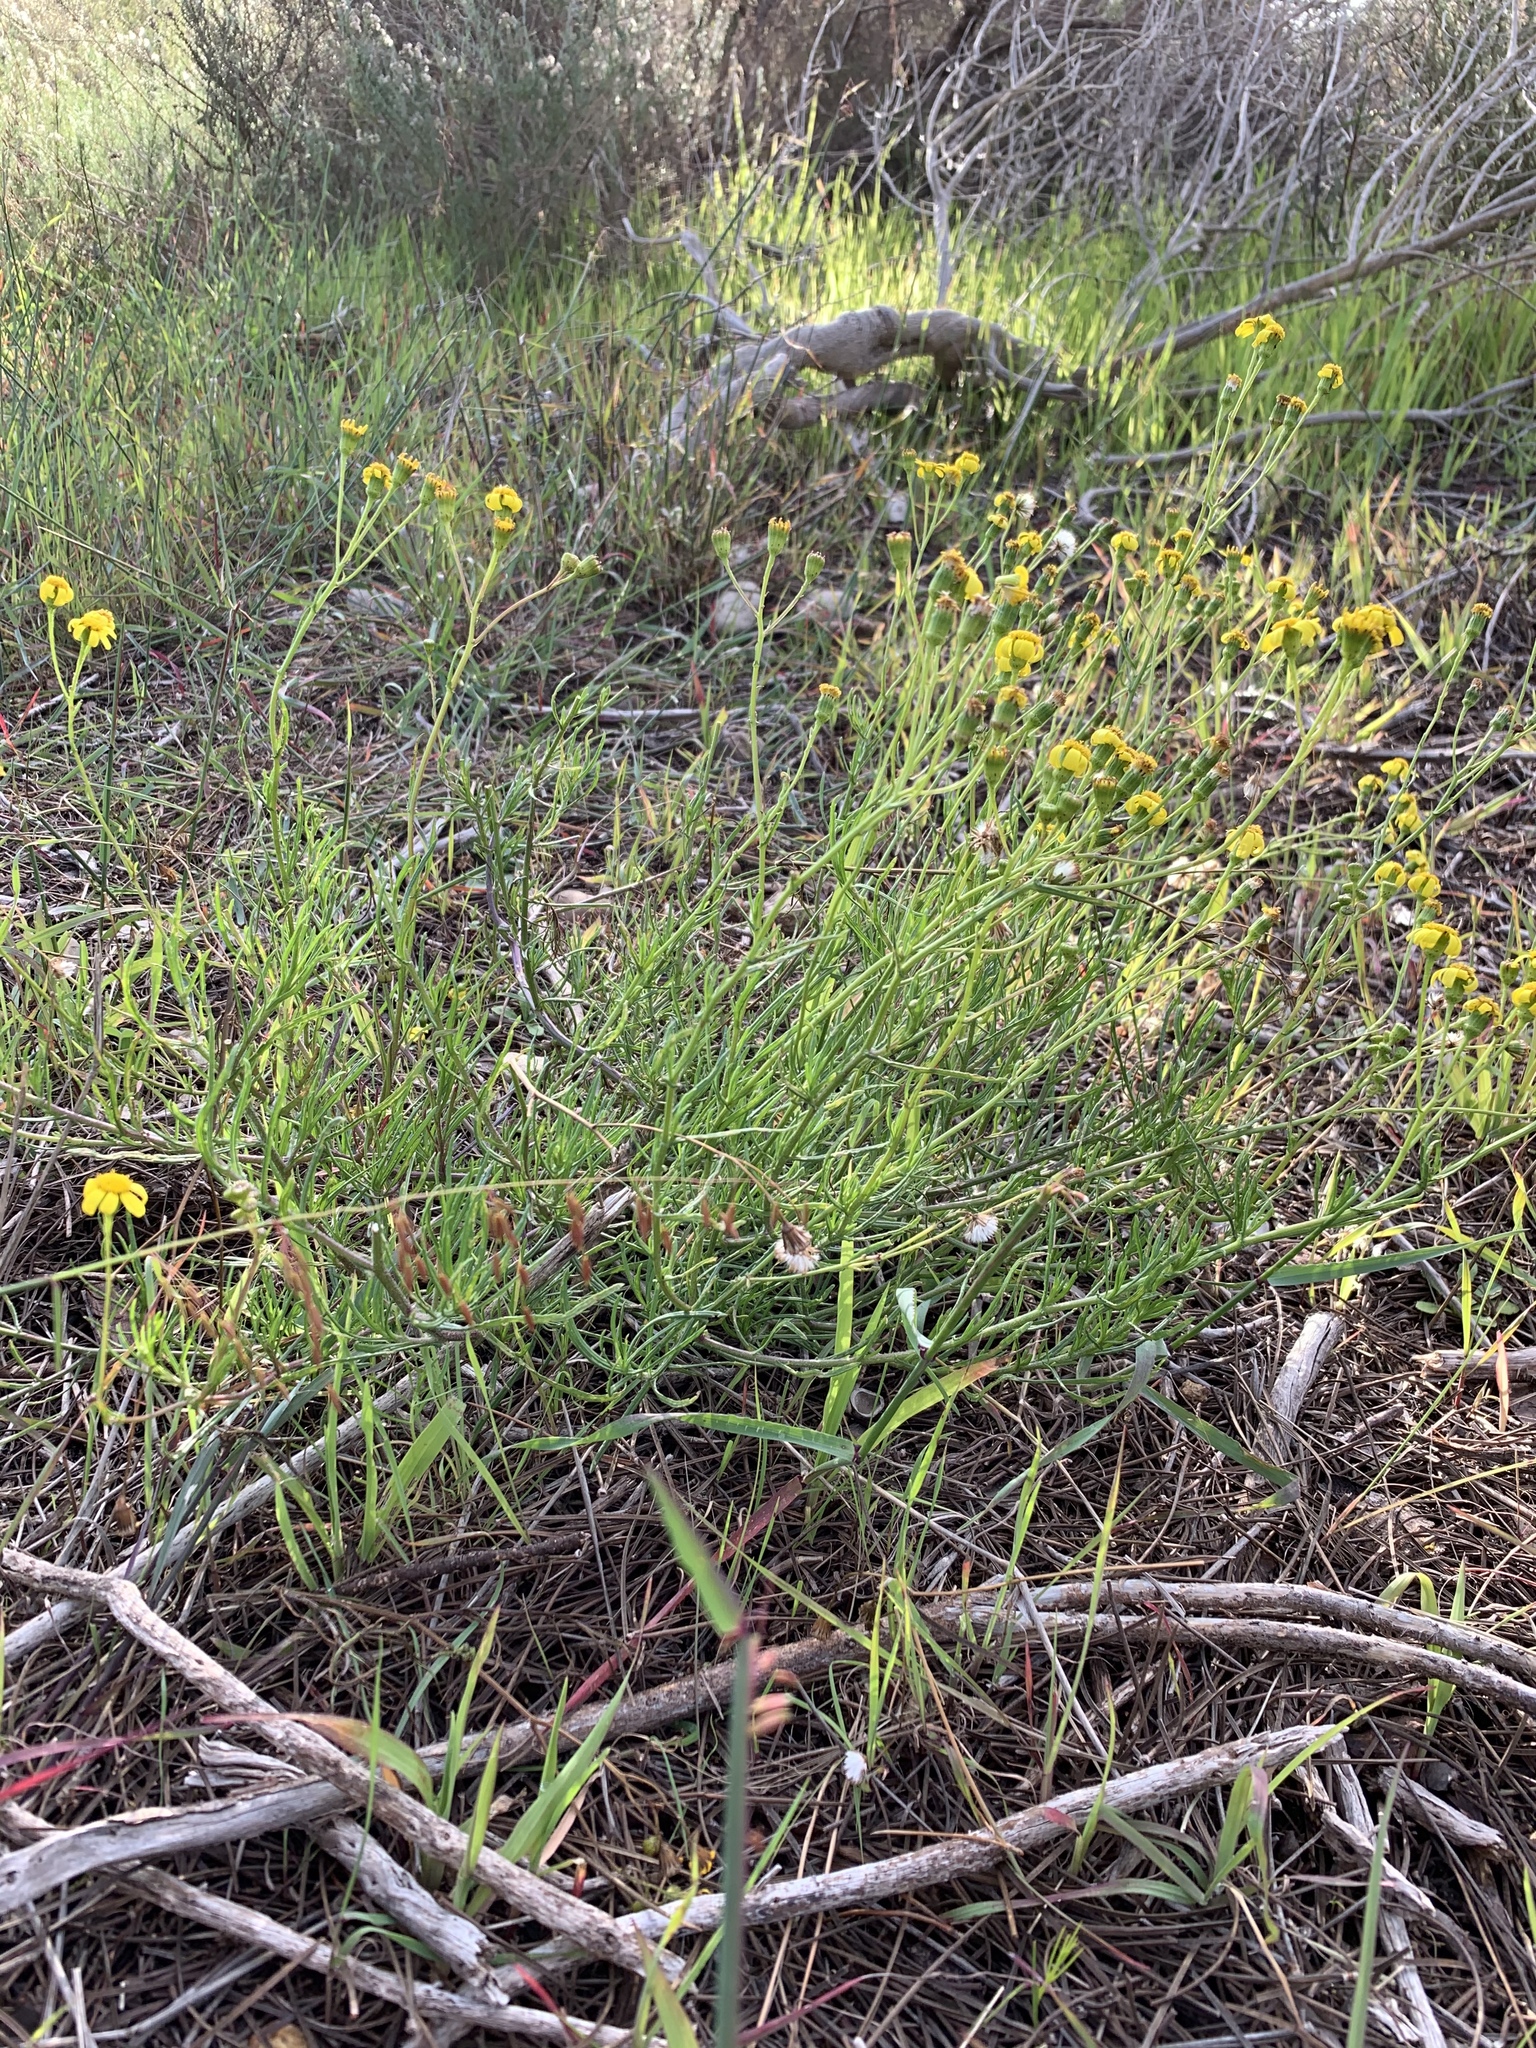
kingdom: Plantae
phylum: Tracheophyta
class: Magnoliopsida
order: Asterales
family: Asteraceae
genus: Senecio
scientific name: Senecio burchellii
